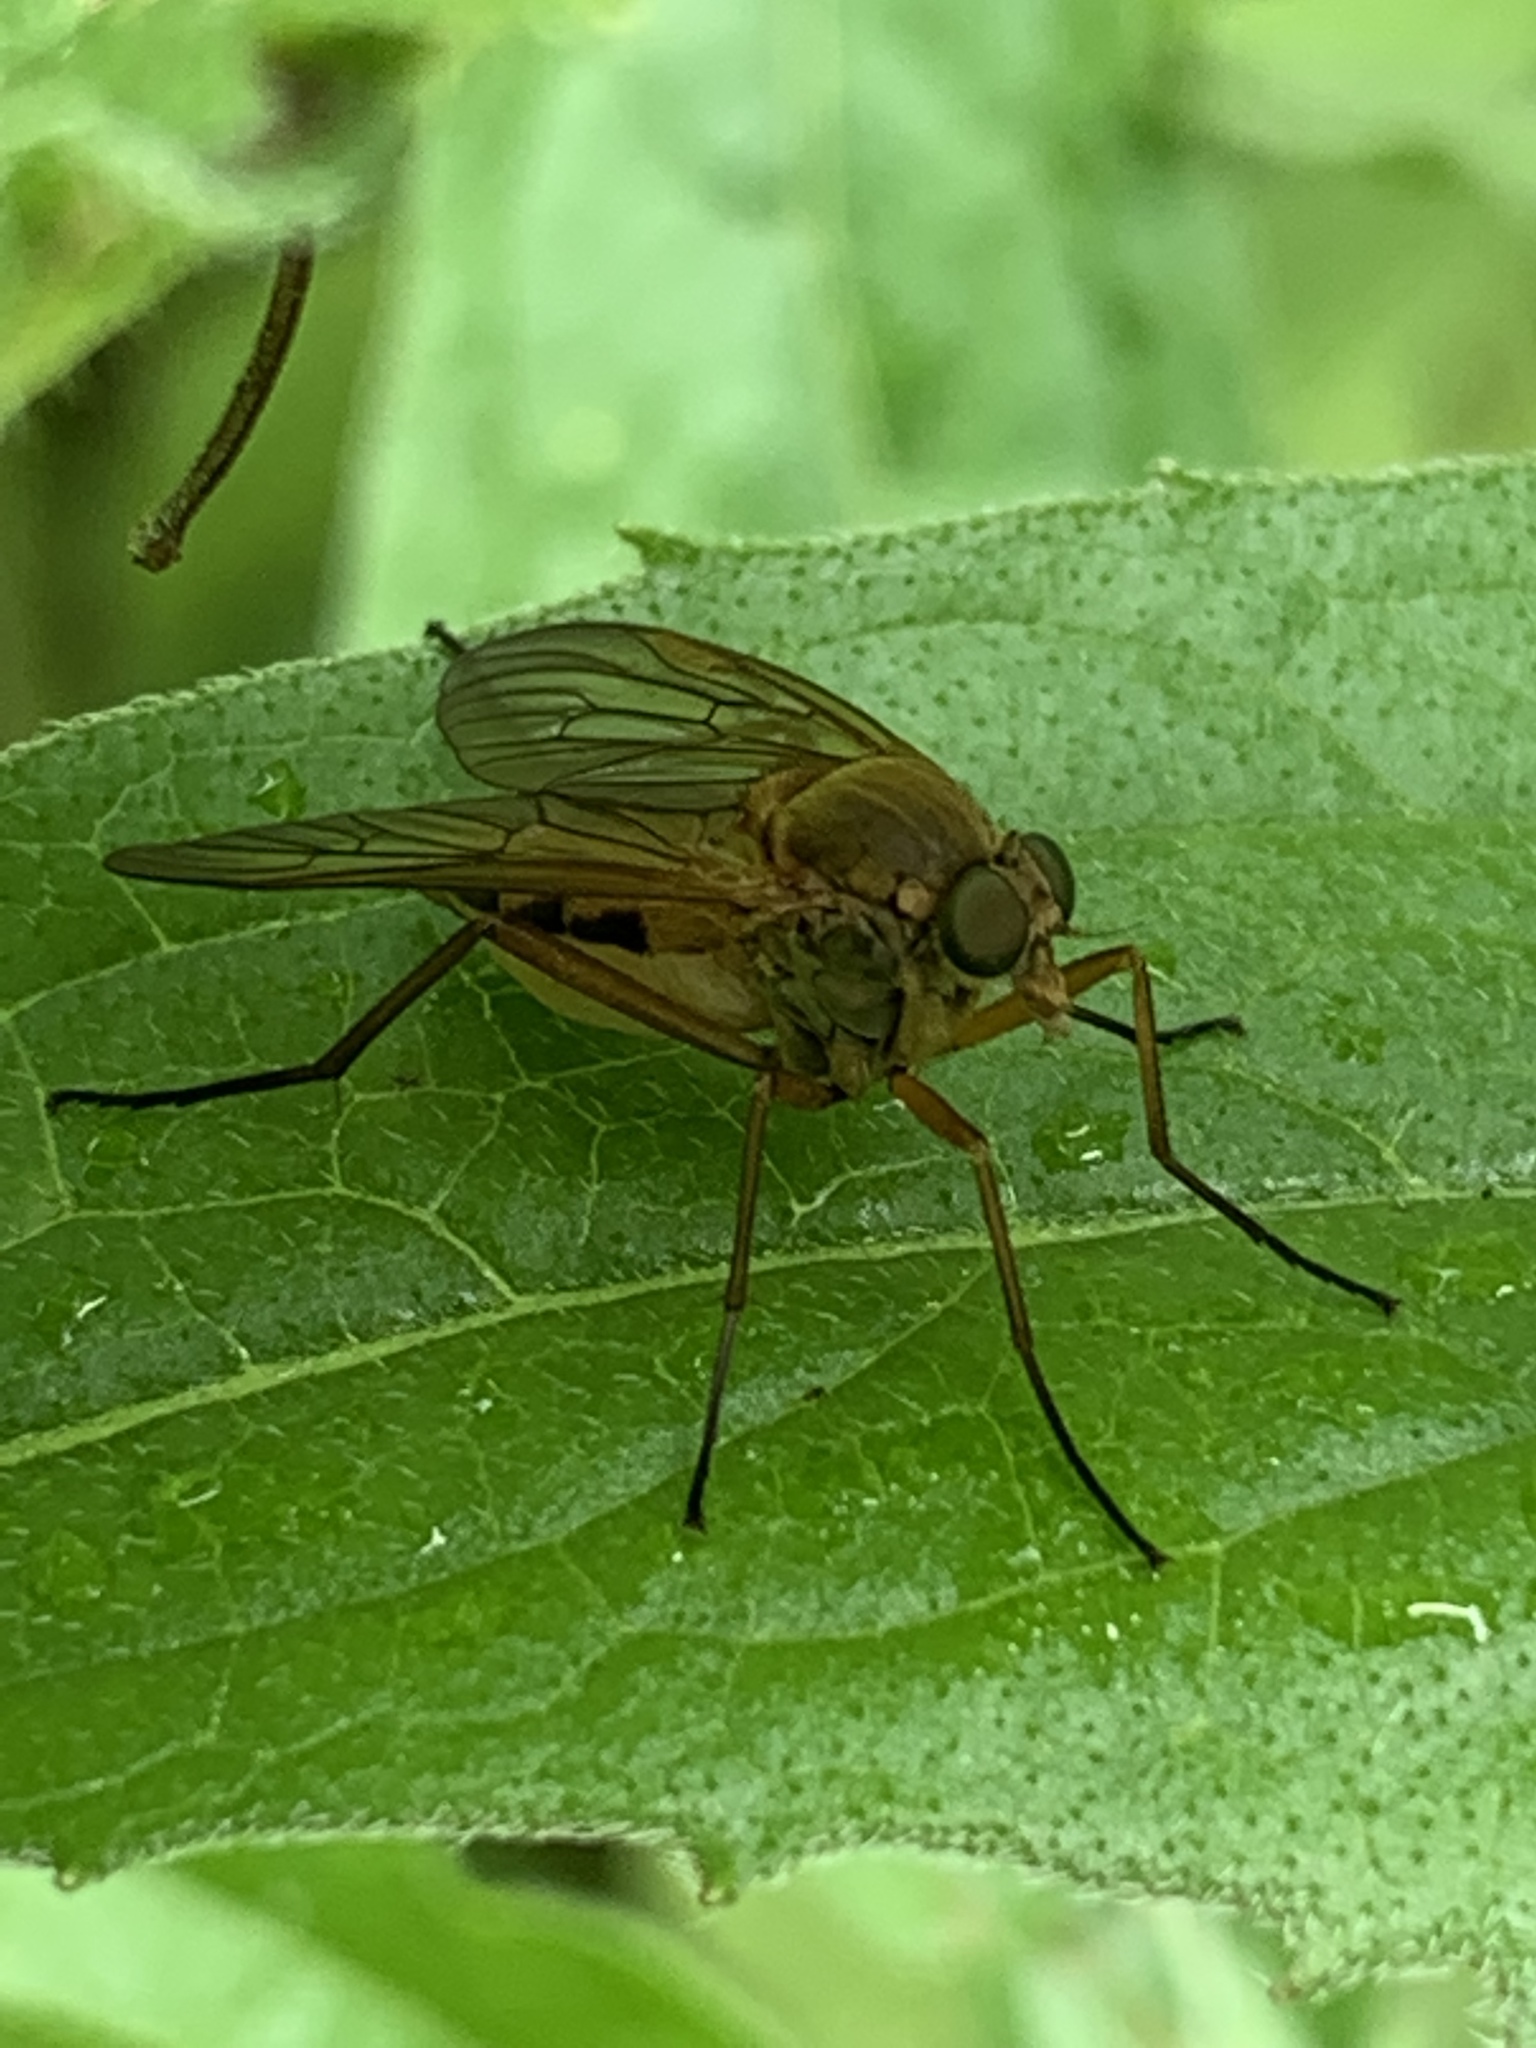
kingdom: Animalia
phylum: Arthropoda
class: Insecta
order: Diptera
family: Rhagionidae
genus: Rhagio
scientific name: Rhagio tringaria
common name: Marsh snipefly
